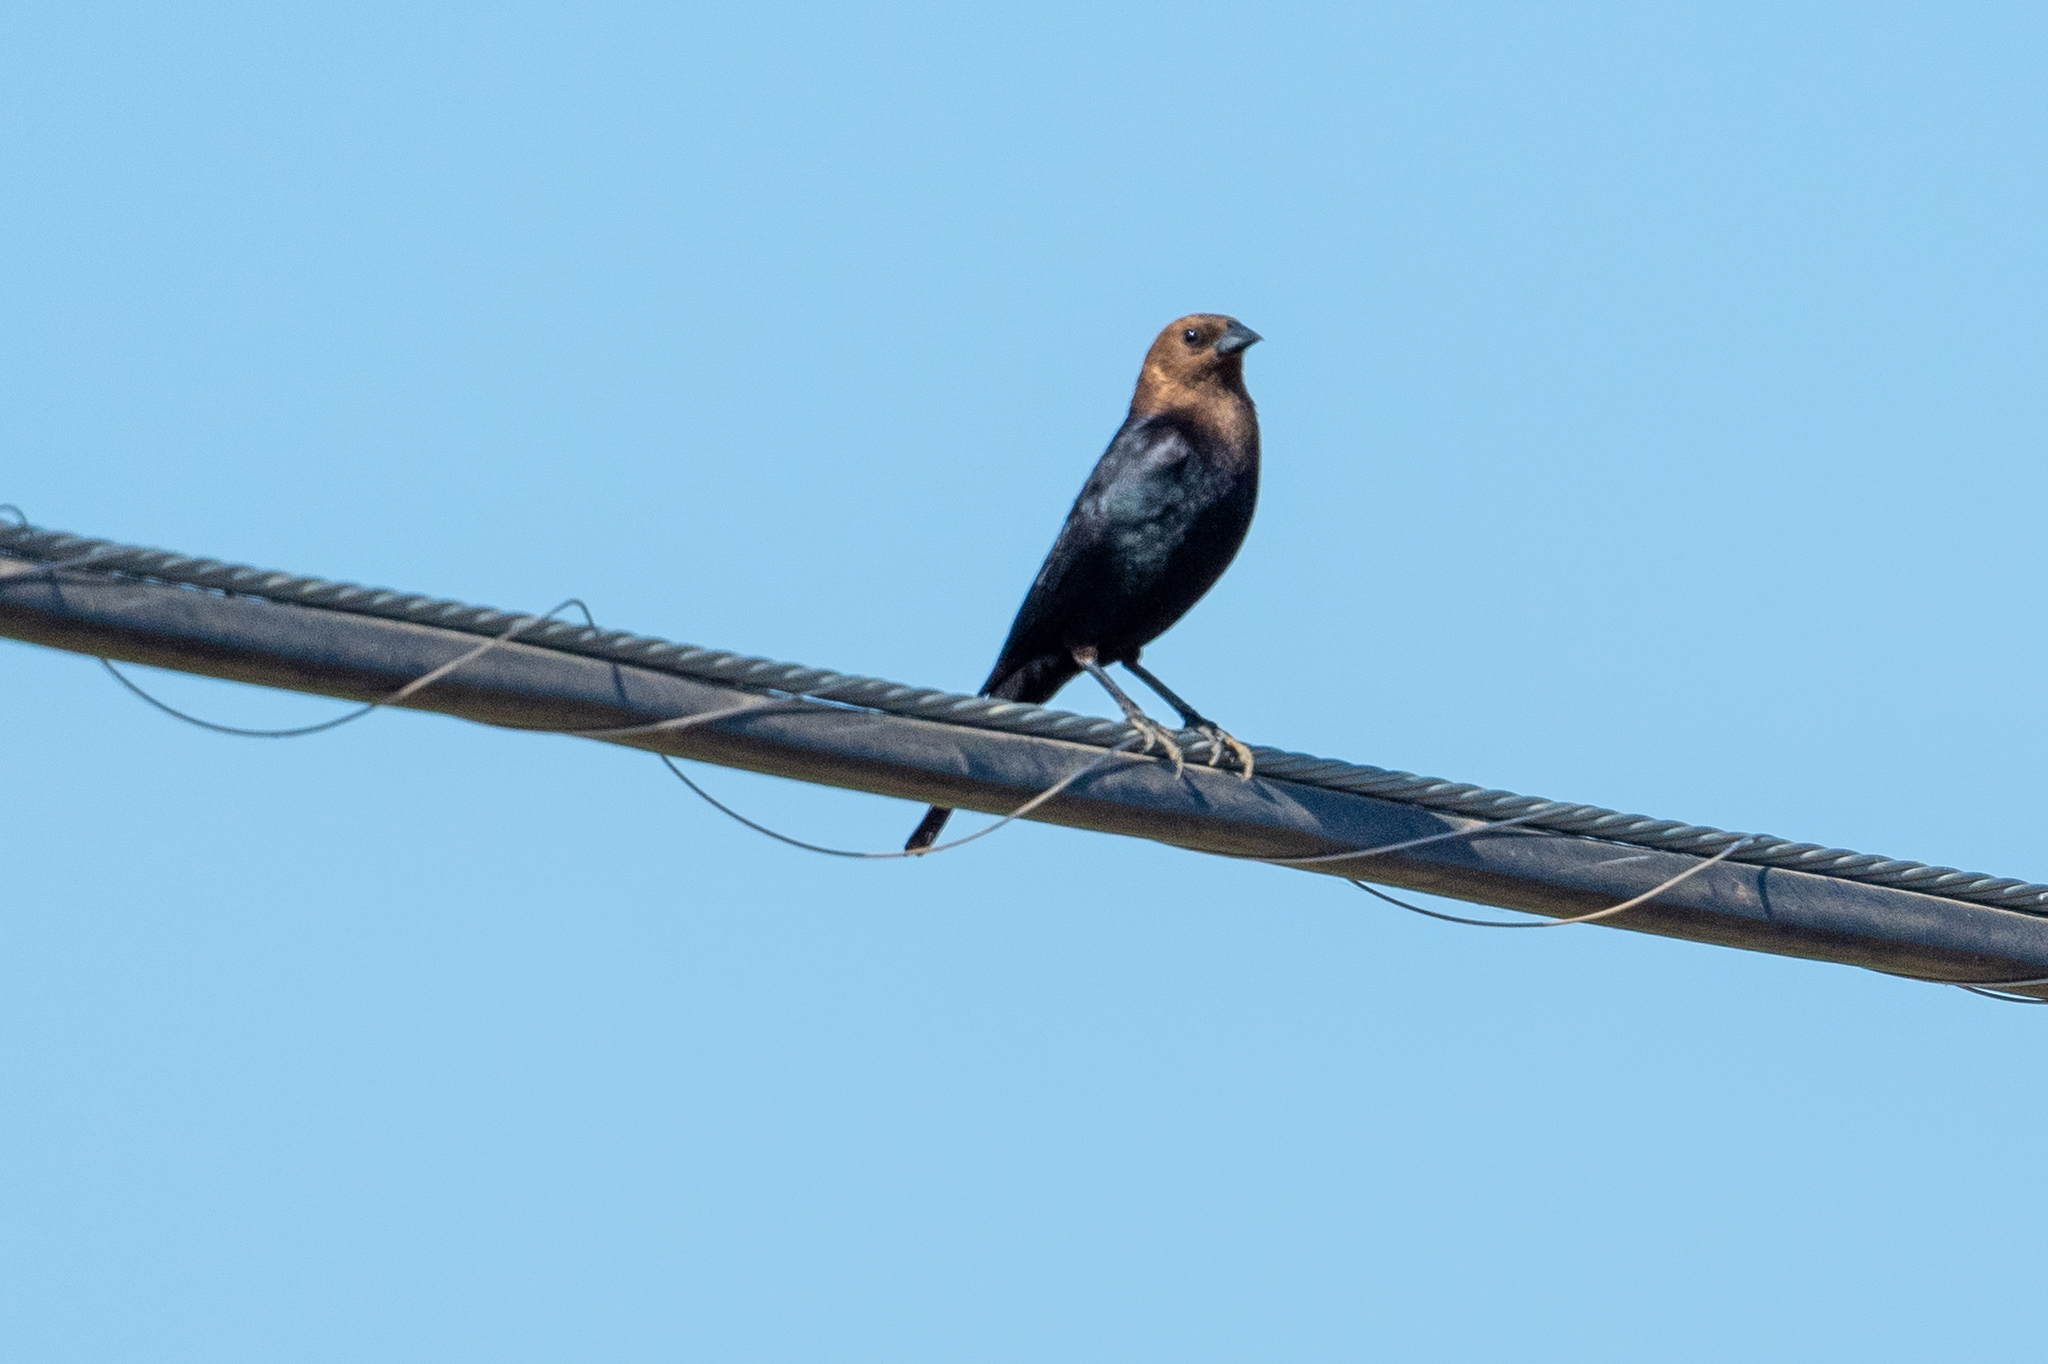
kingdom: Animalia
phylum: Chordata
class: Aves
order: Passeriformes
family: Icteridae
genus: Molothrus
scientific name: Molothrus ater
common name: Brown-headed cowbird
